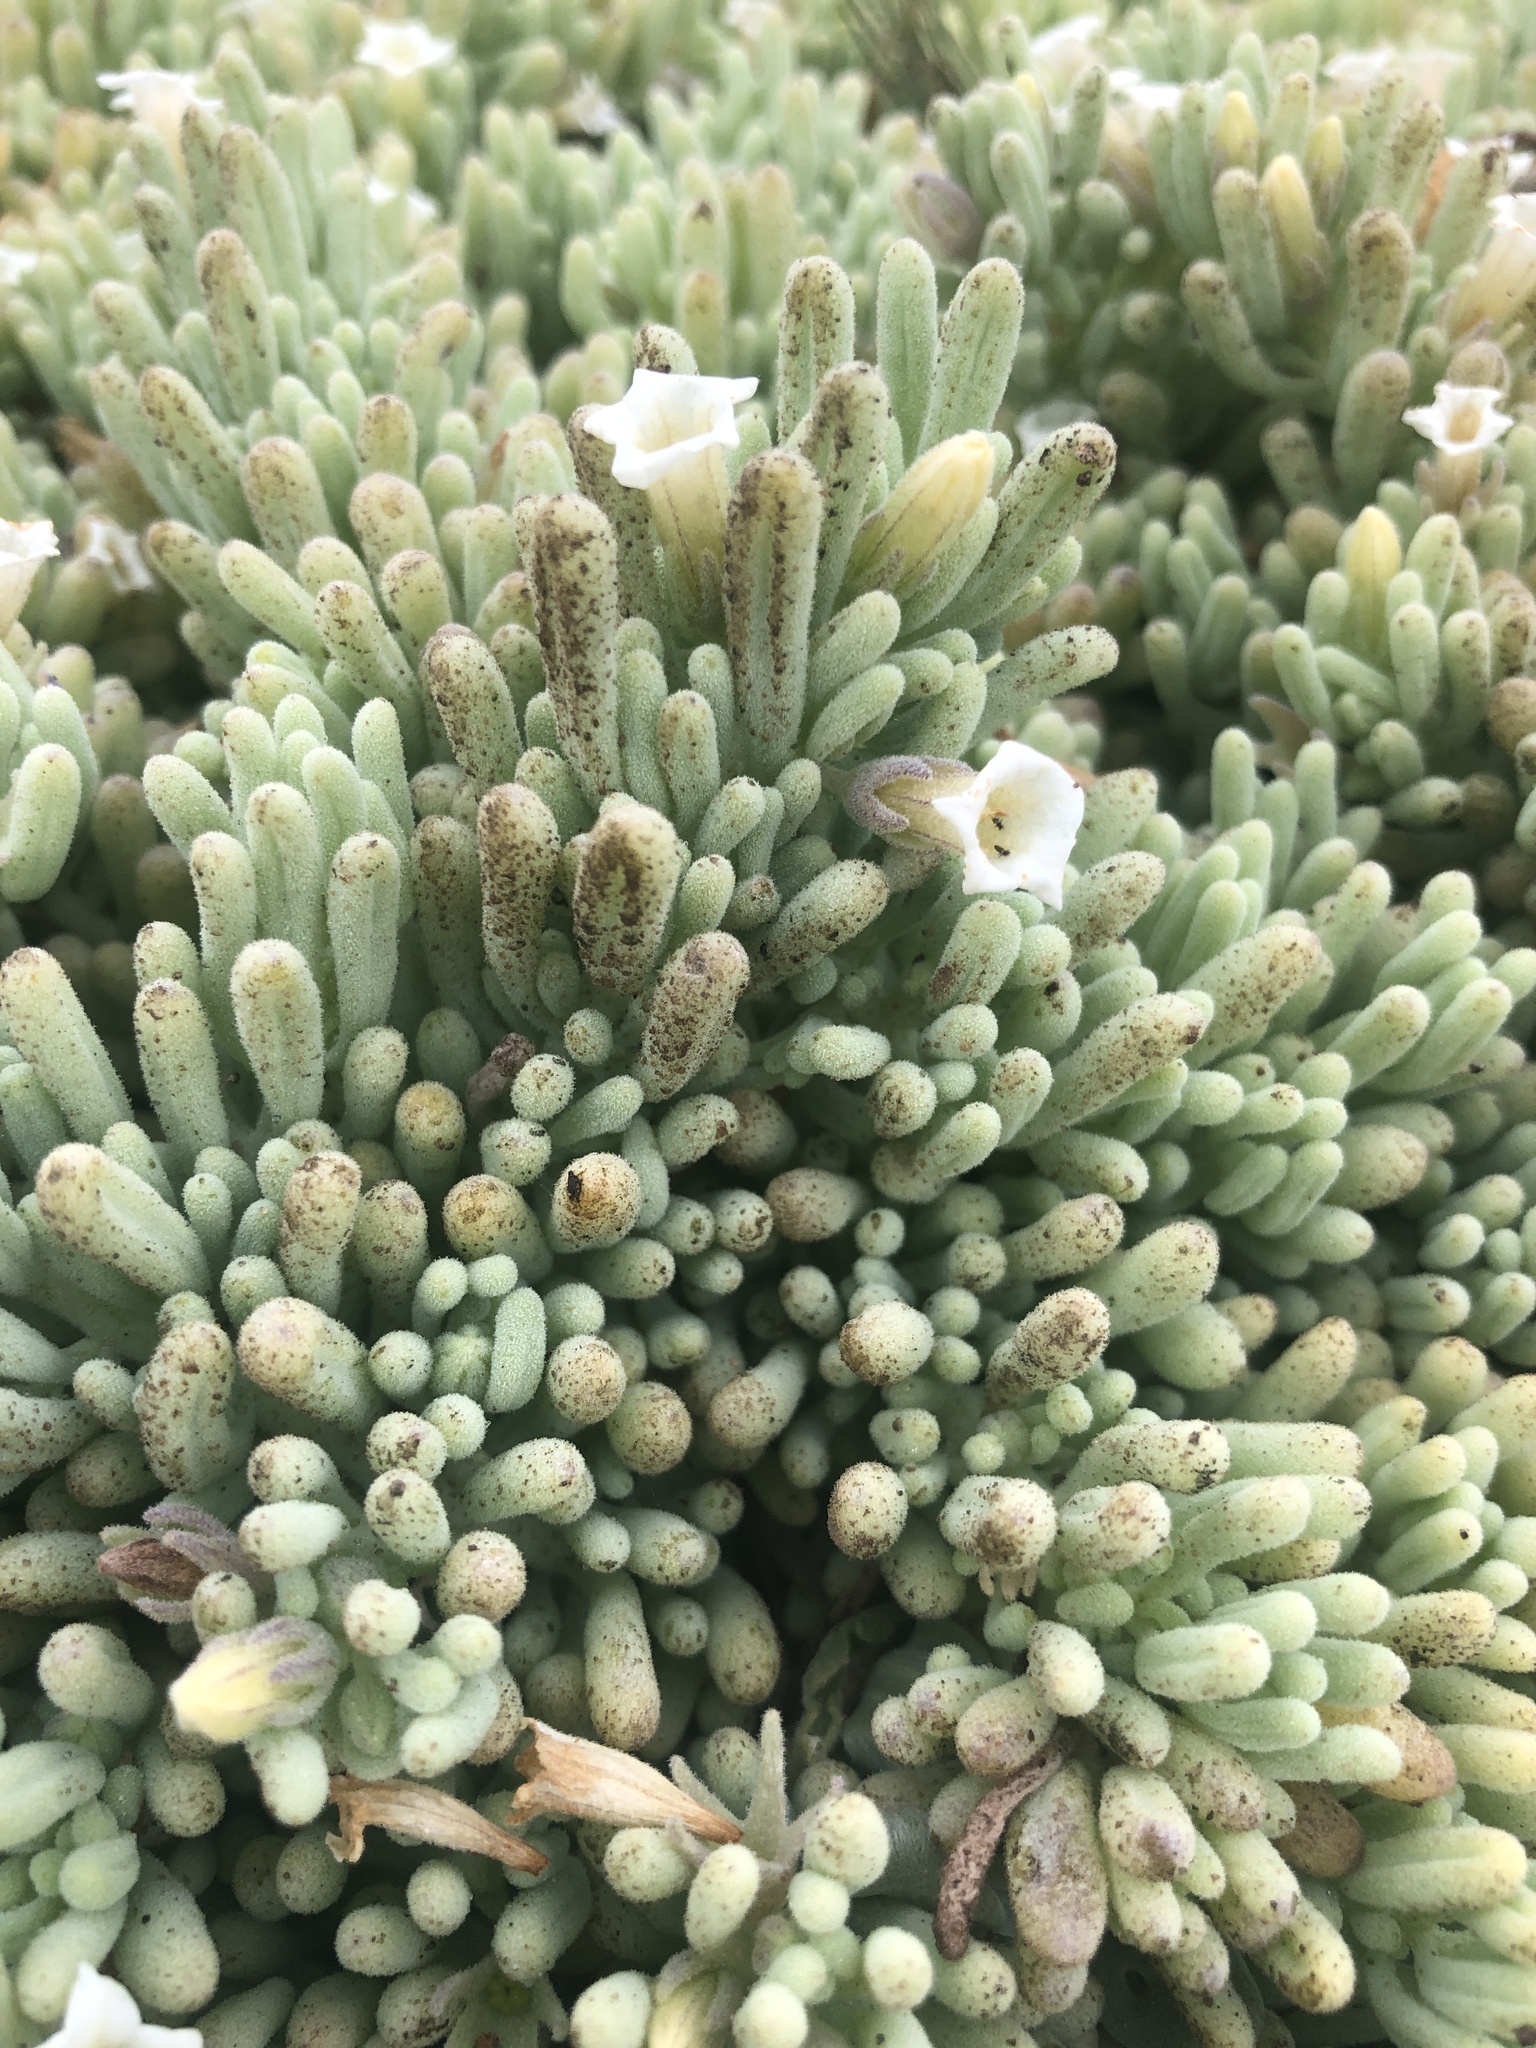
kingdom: Plantae
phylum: Tracheophyta
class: Magnoliopsida
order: Solanales
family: Solanaceae
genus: Nolana
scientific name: Nolana crassulifolia
